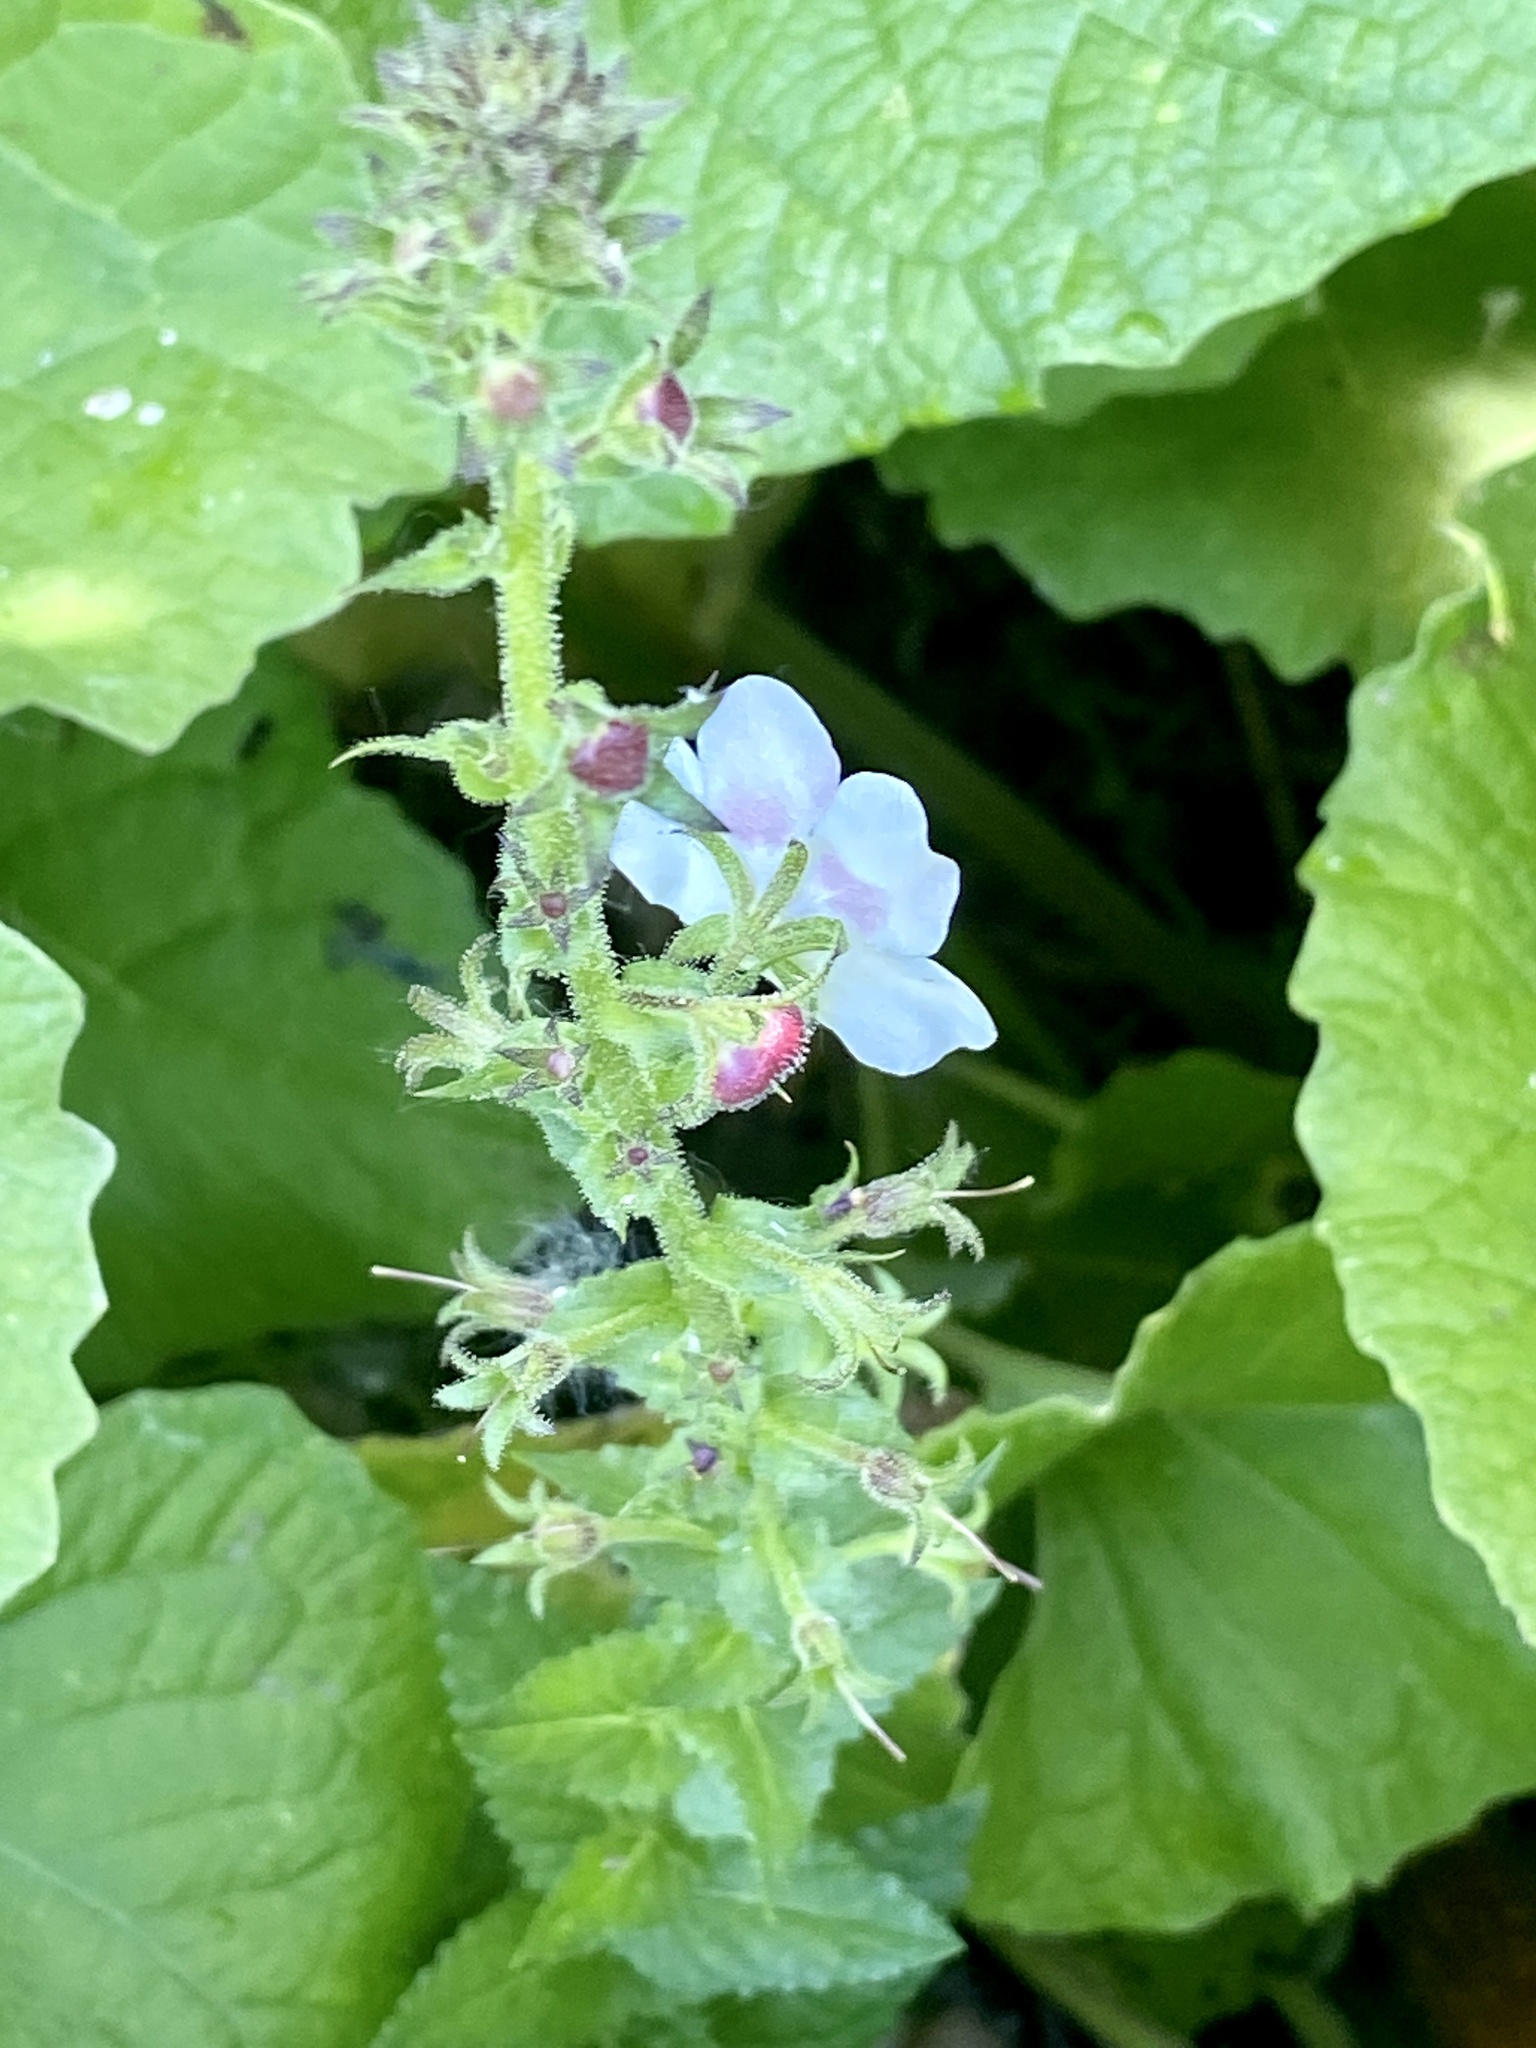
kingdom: Plantae
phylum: Tracheophyta
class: Magnoliopsida
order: Lamiales
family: Scrophulariaceae
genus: Verbascum
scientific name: Verbascum blattaria
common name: Moth mullein
